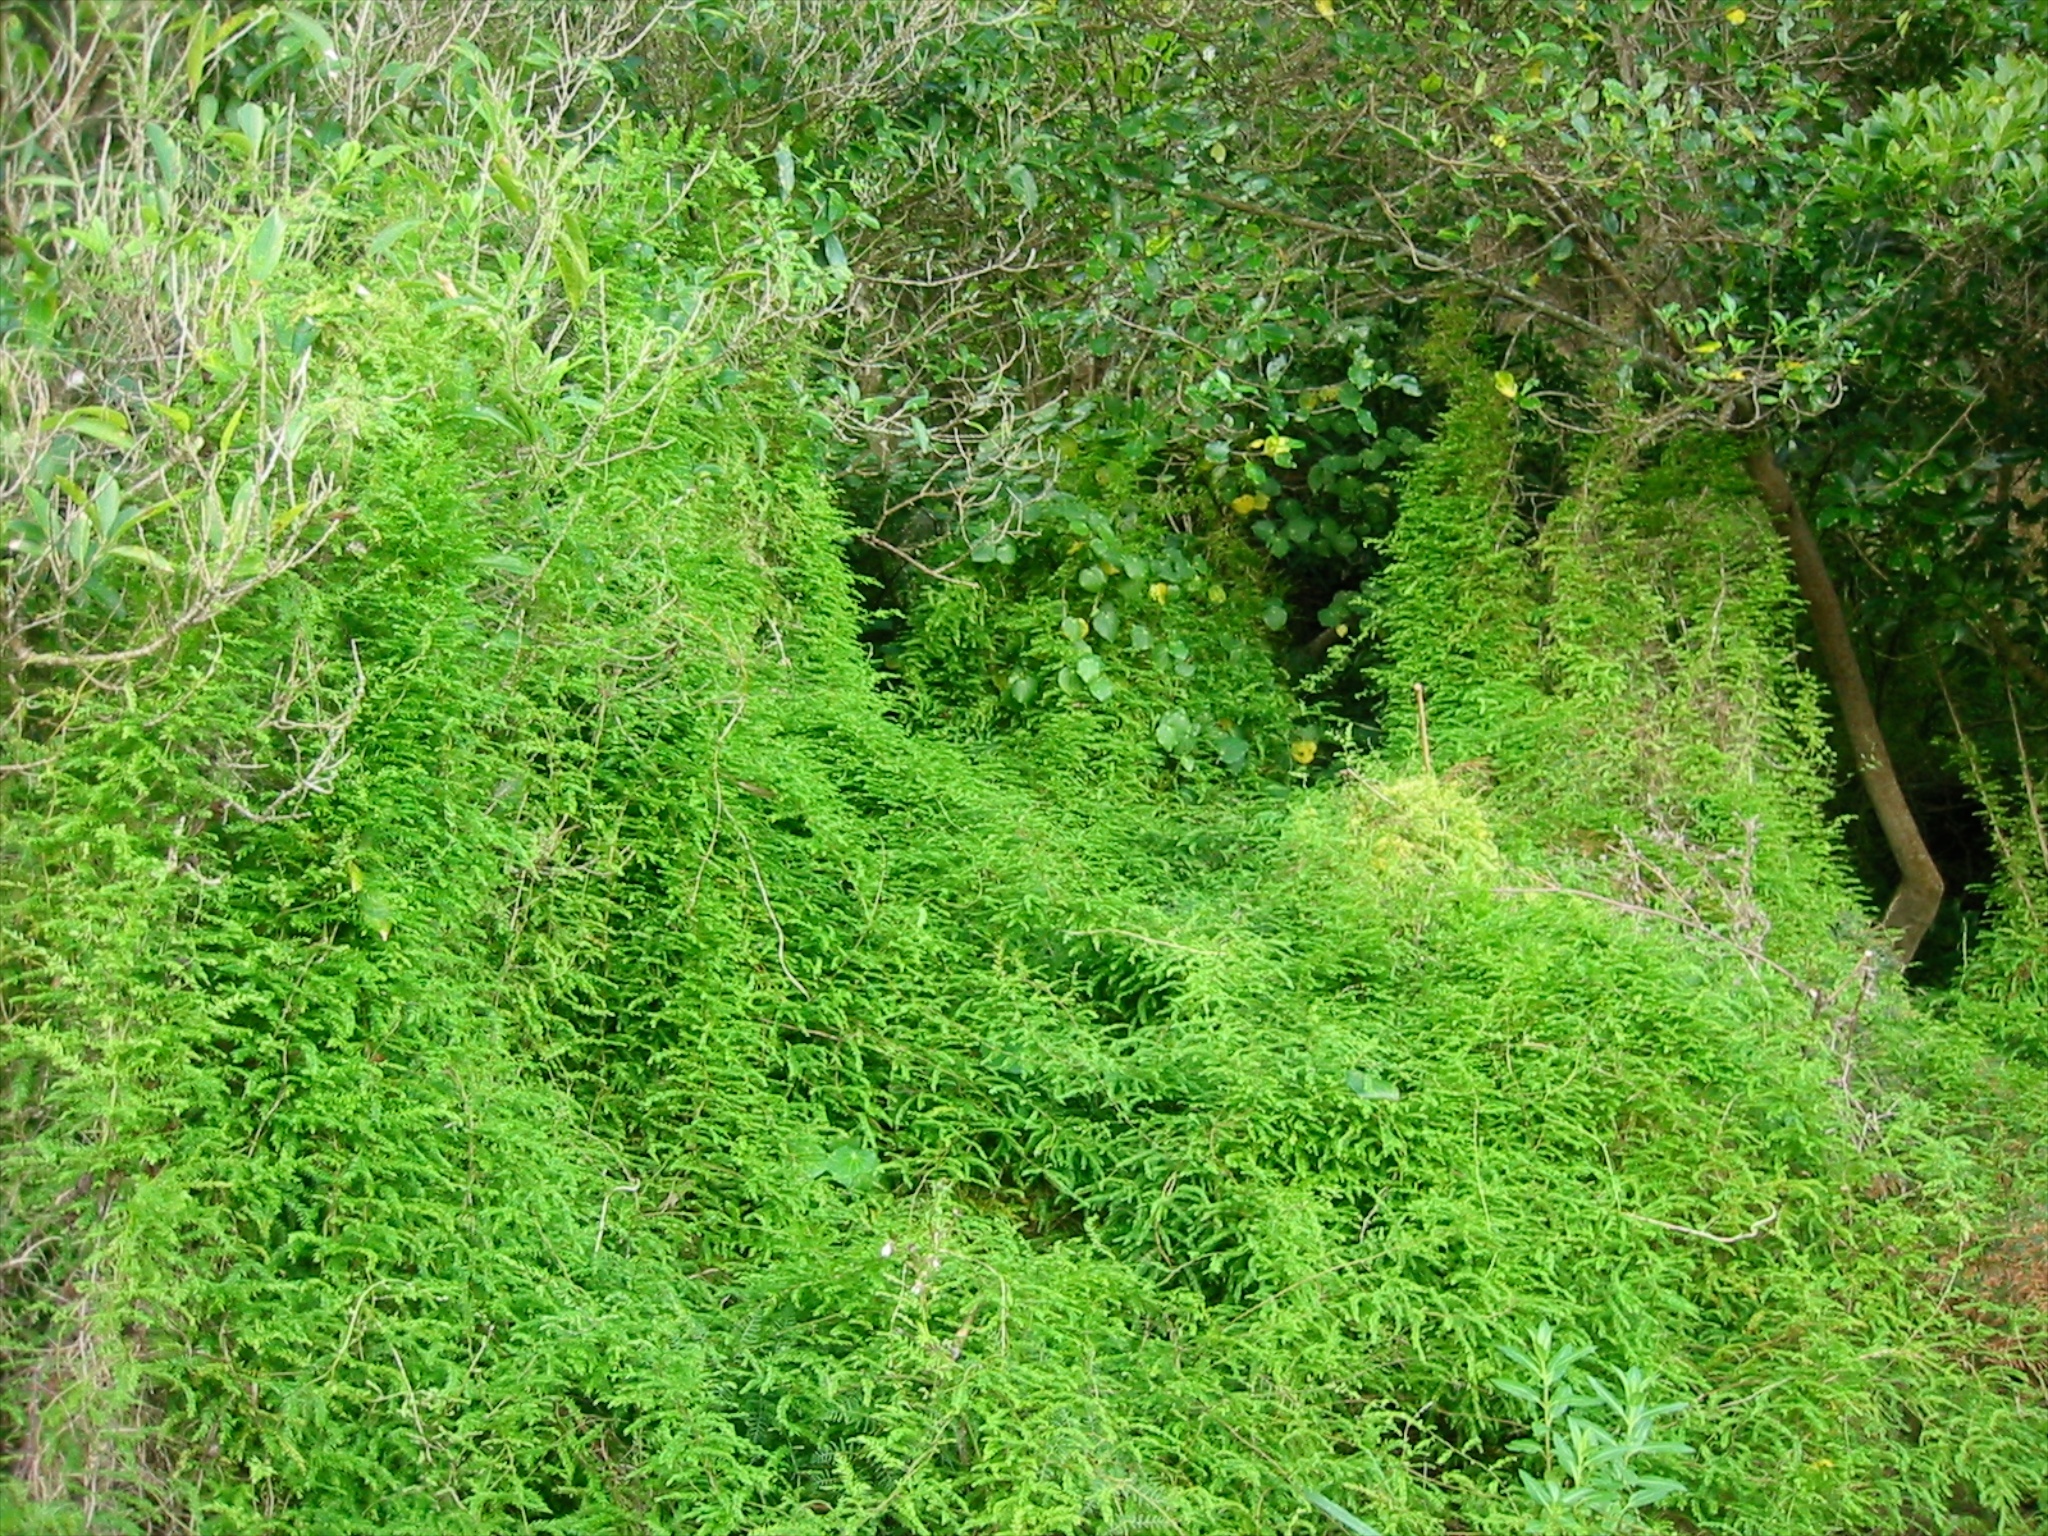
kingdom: Plantae
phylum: Tracheophyta
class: Liliopsida
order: Asparagales
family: Asparagaceae
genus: Asparagus
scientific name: Asparagus scandens
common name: Asparagus-fern
